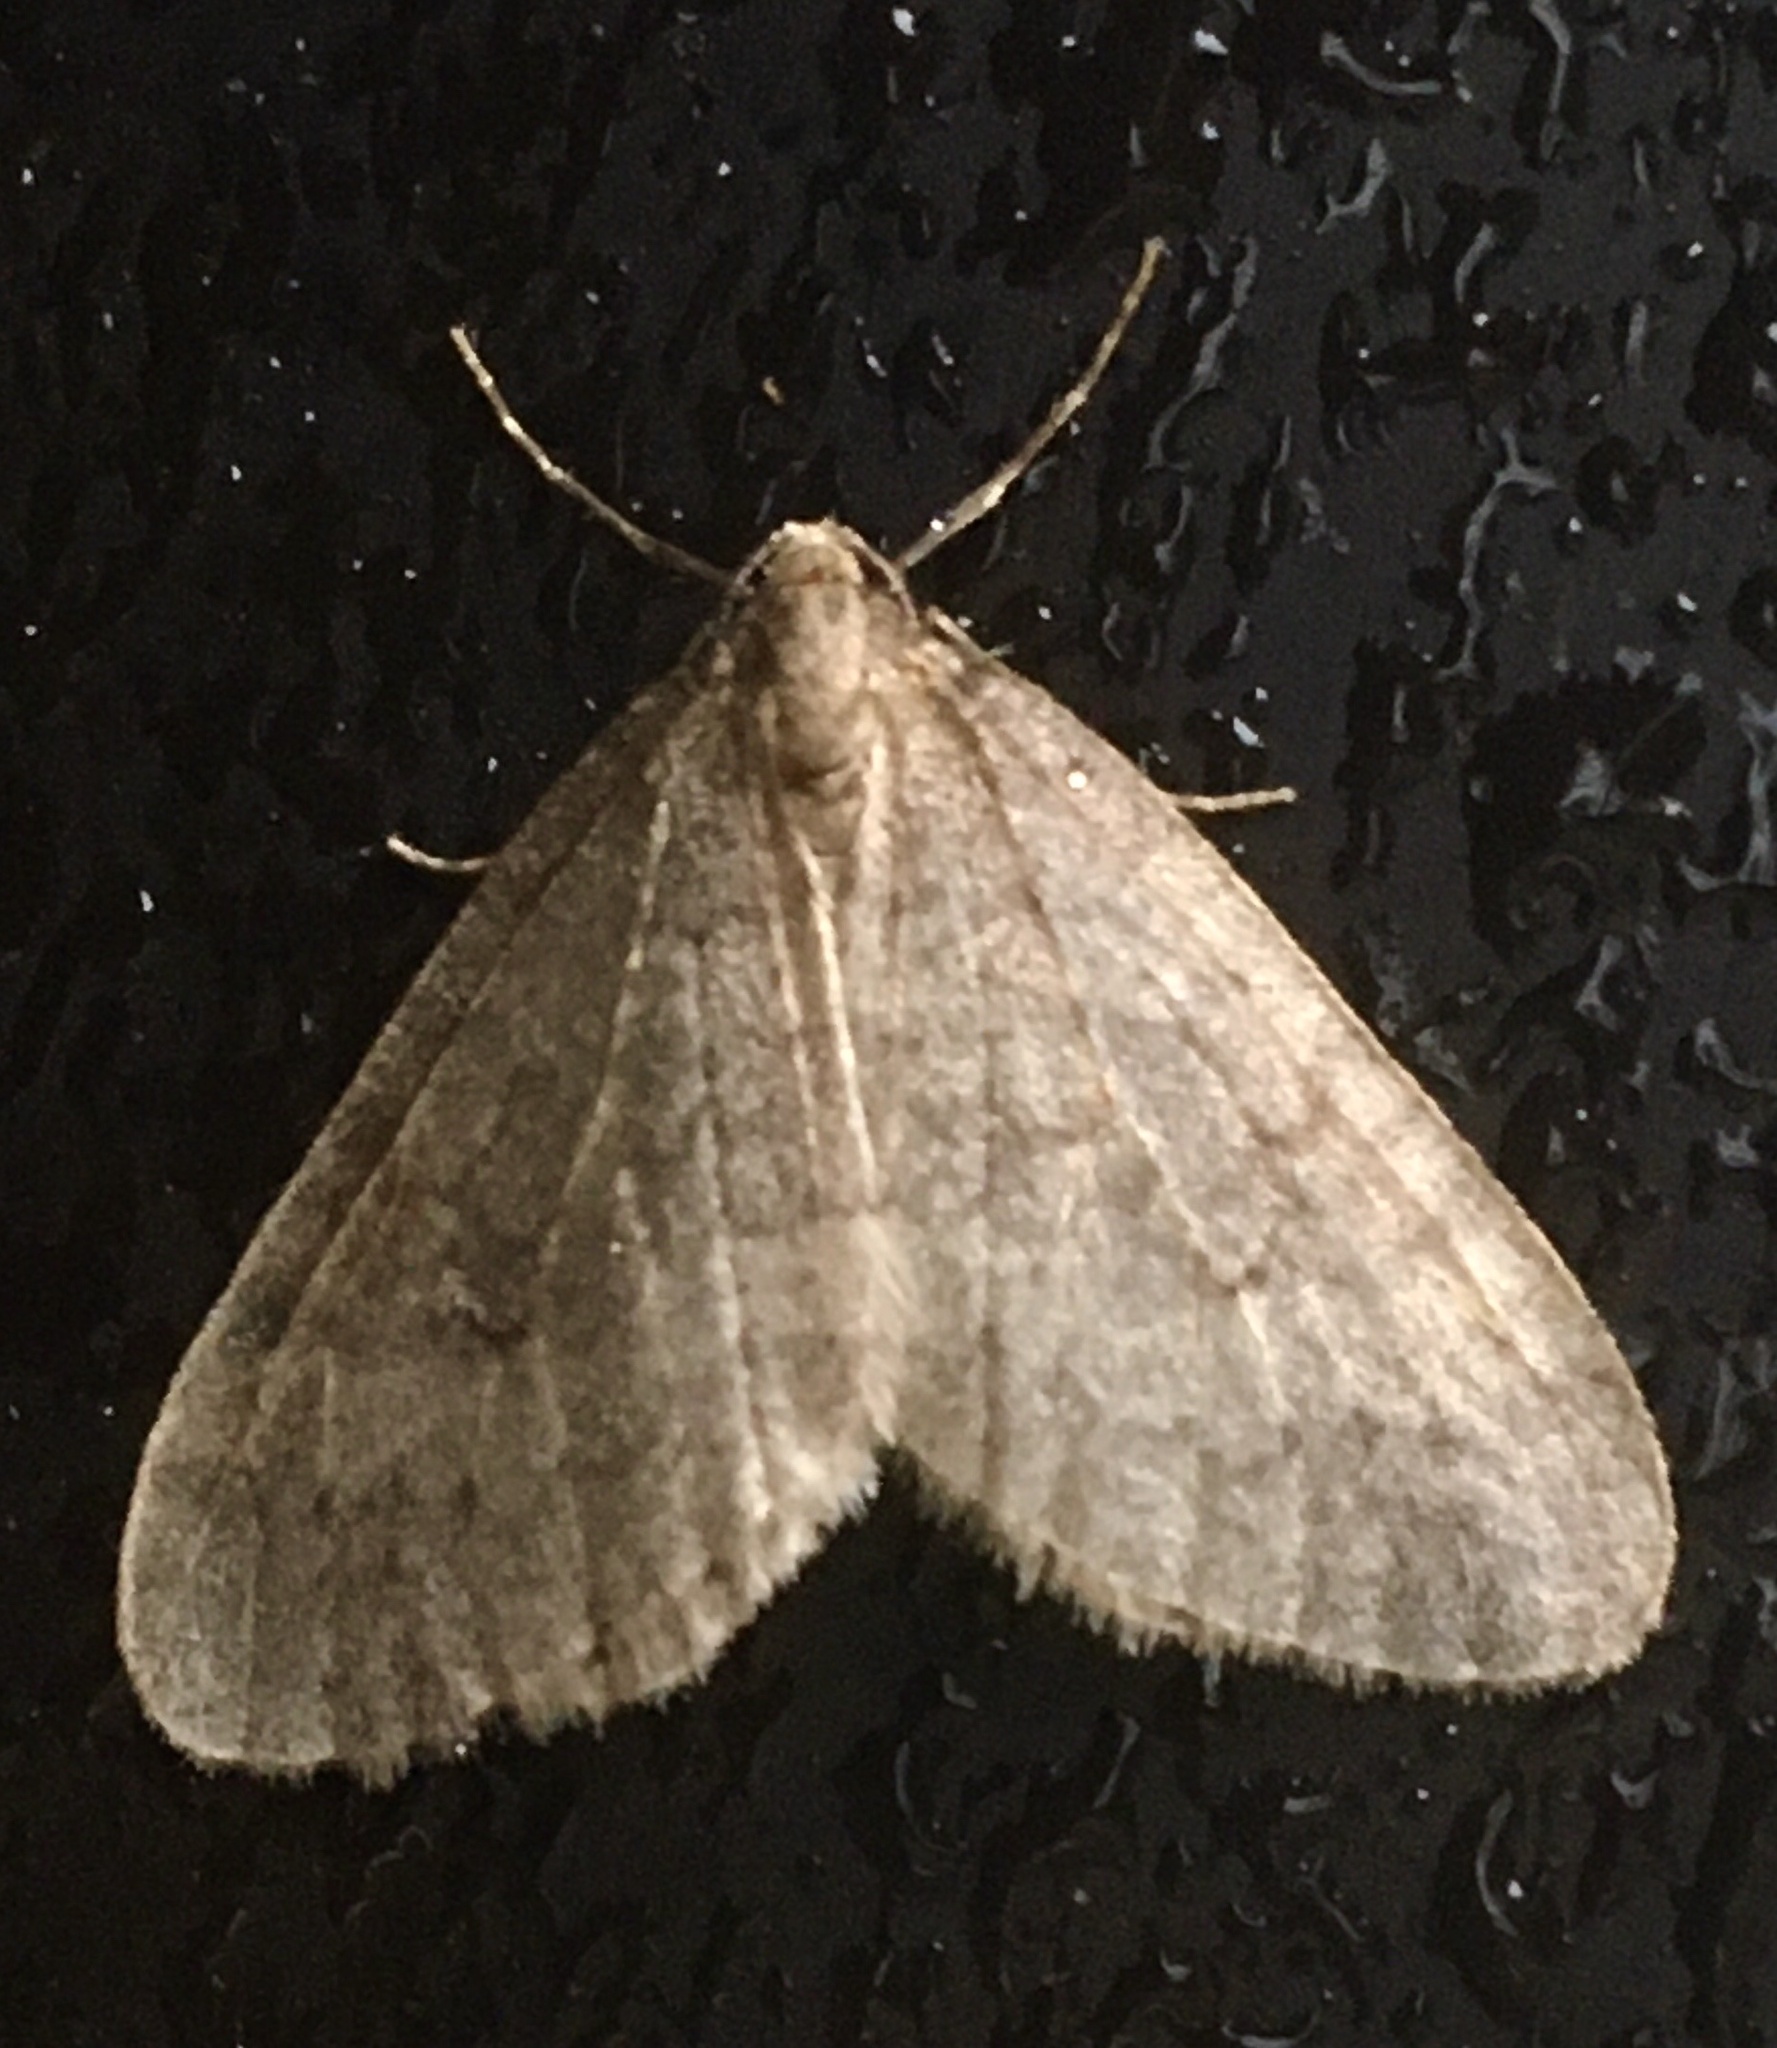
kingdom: Animalia
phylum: Arthropoda
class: Insecta
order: Lepidoptera
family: Geometridae
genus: Operophtera
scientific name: Operophtera brumata
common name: Winter moth
